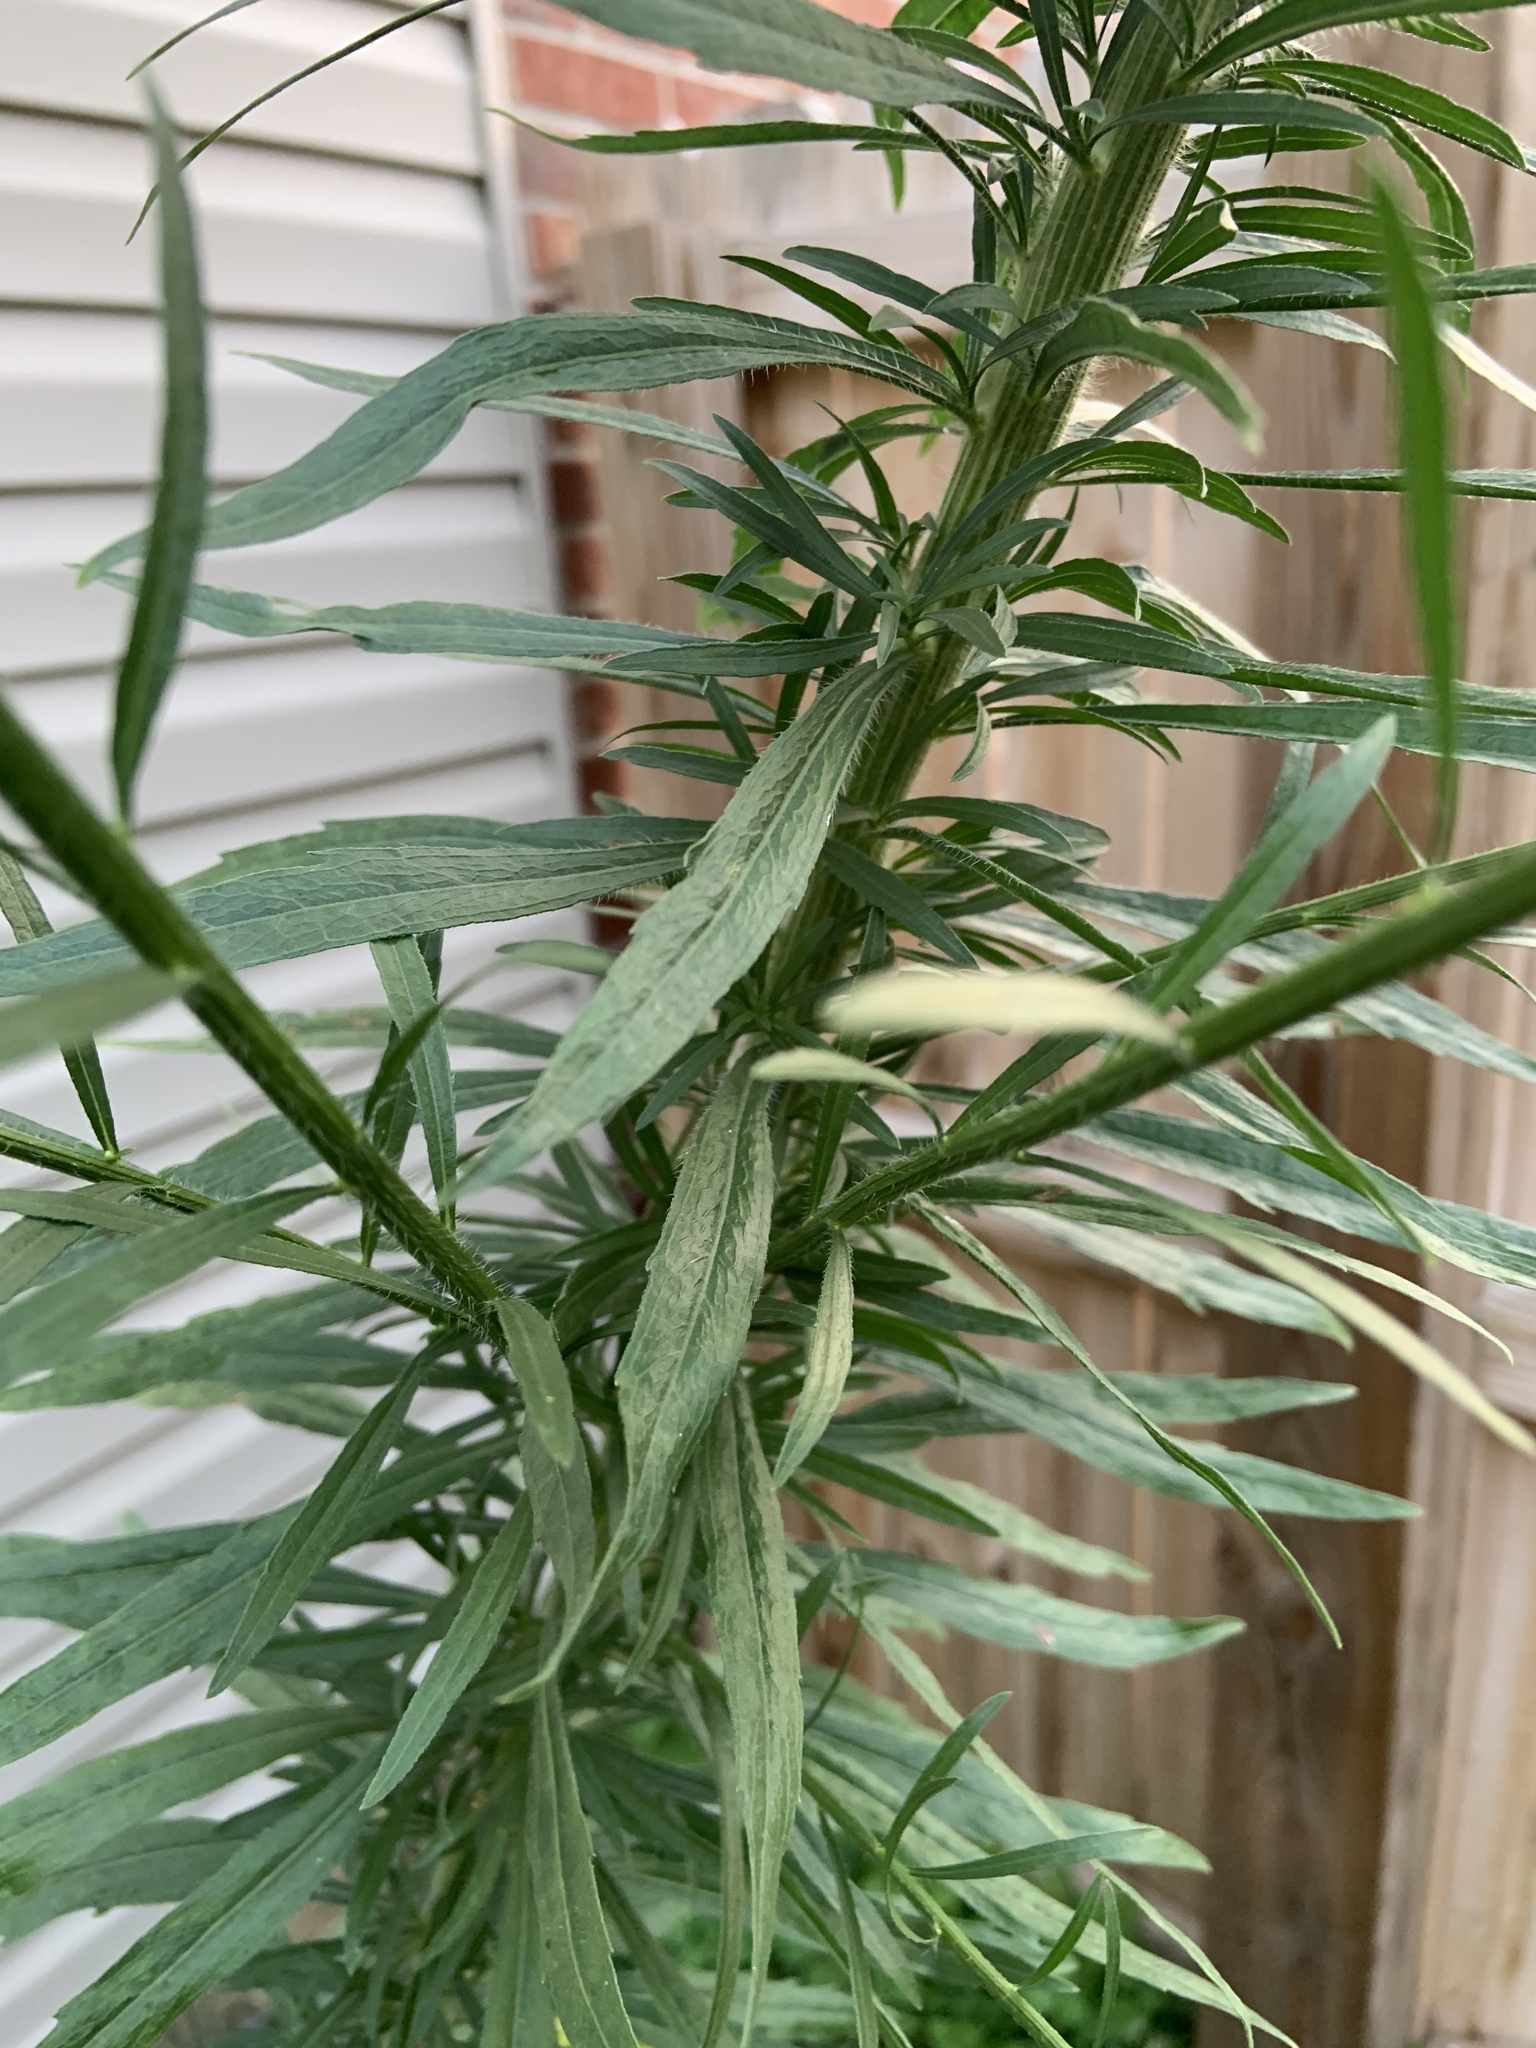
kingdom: Plantae
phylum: Tracheophyta
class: Magnoliopsida
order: Asterales
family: Asteraceae
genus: Erigeron
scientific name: Erigeron canadensis
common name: Canadian fleabane
